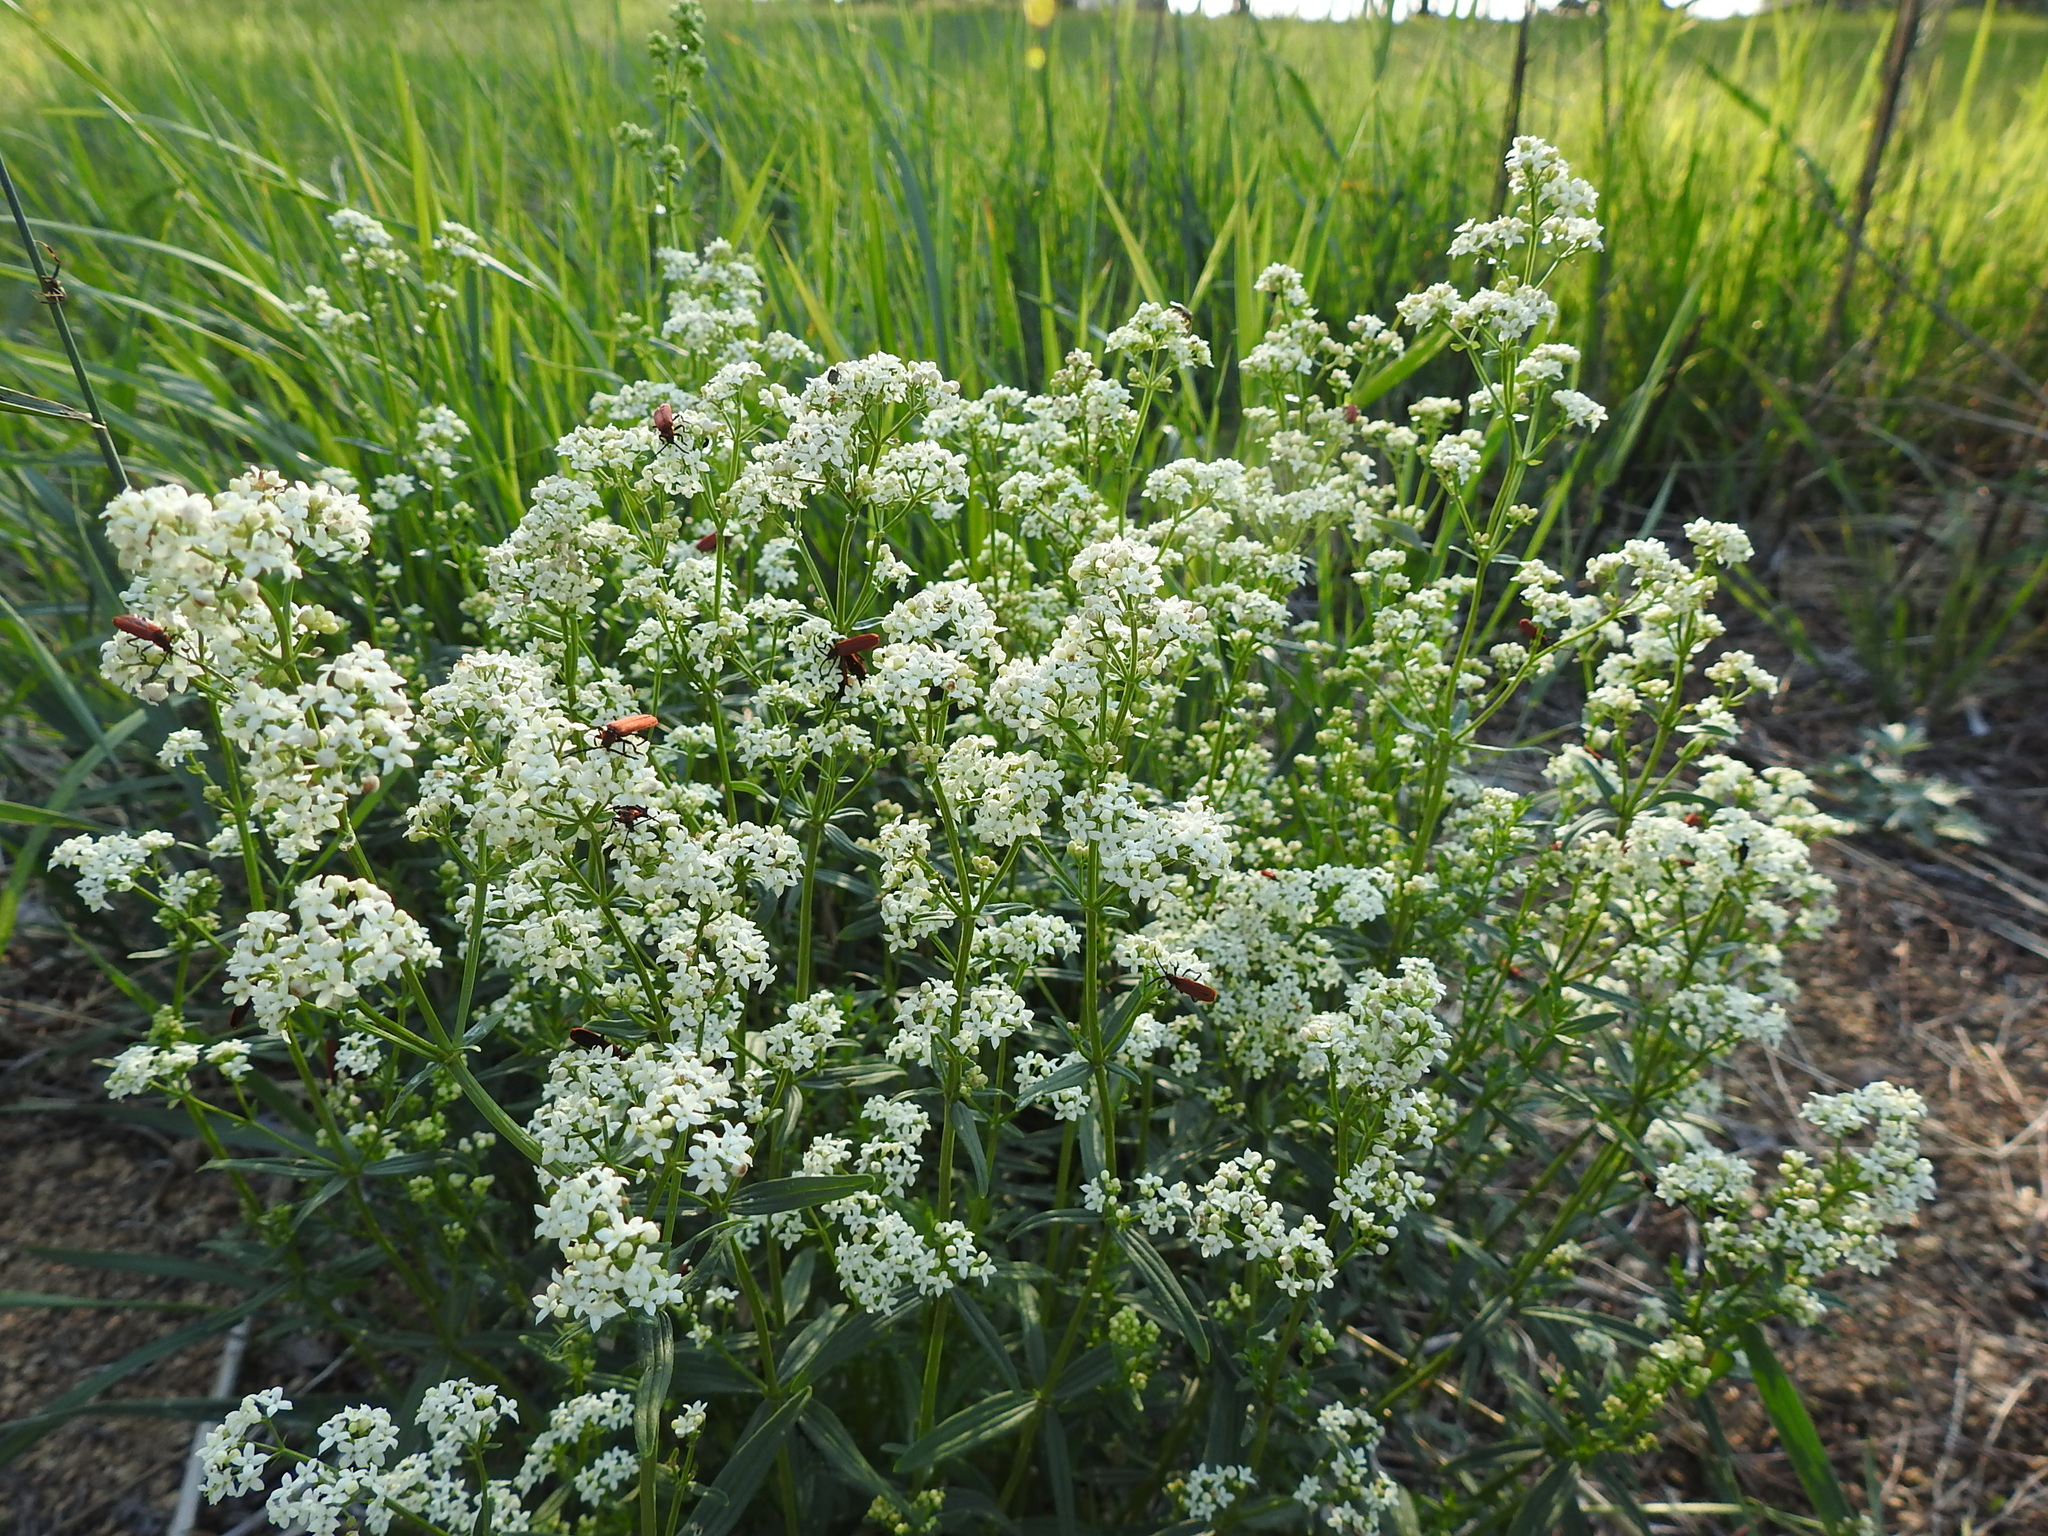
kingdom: Plantae
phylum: Tracheophyta
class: Magnoliopsida
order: Gentianales
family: Rubiaceae
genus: Galium
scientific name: Galium boreale
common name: Northern bedstraw
